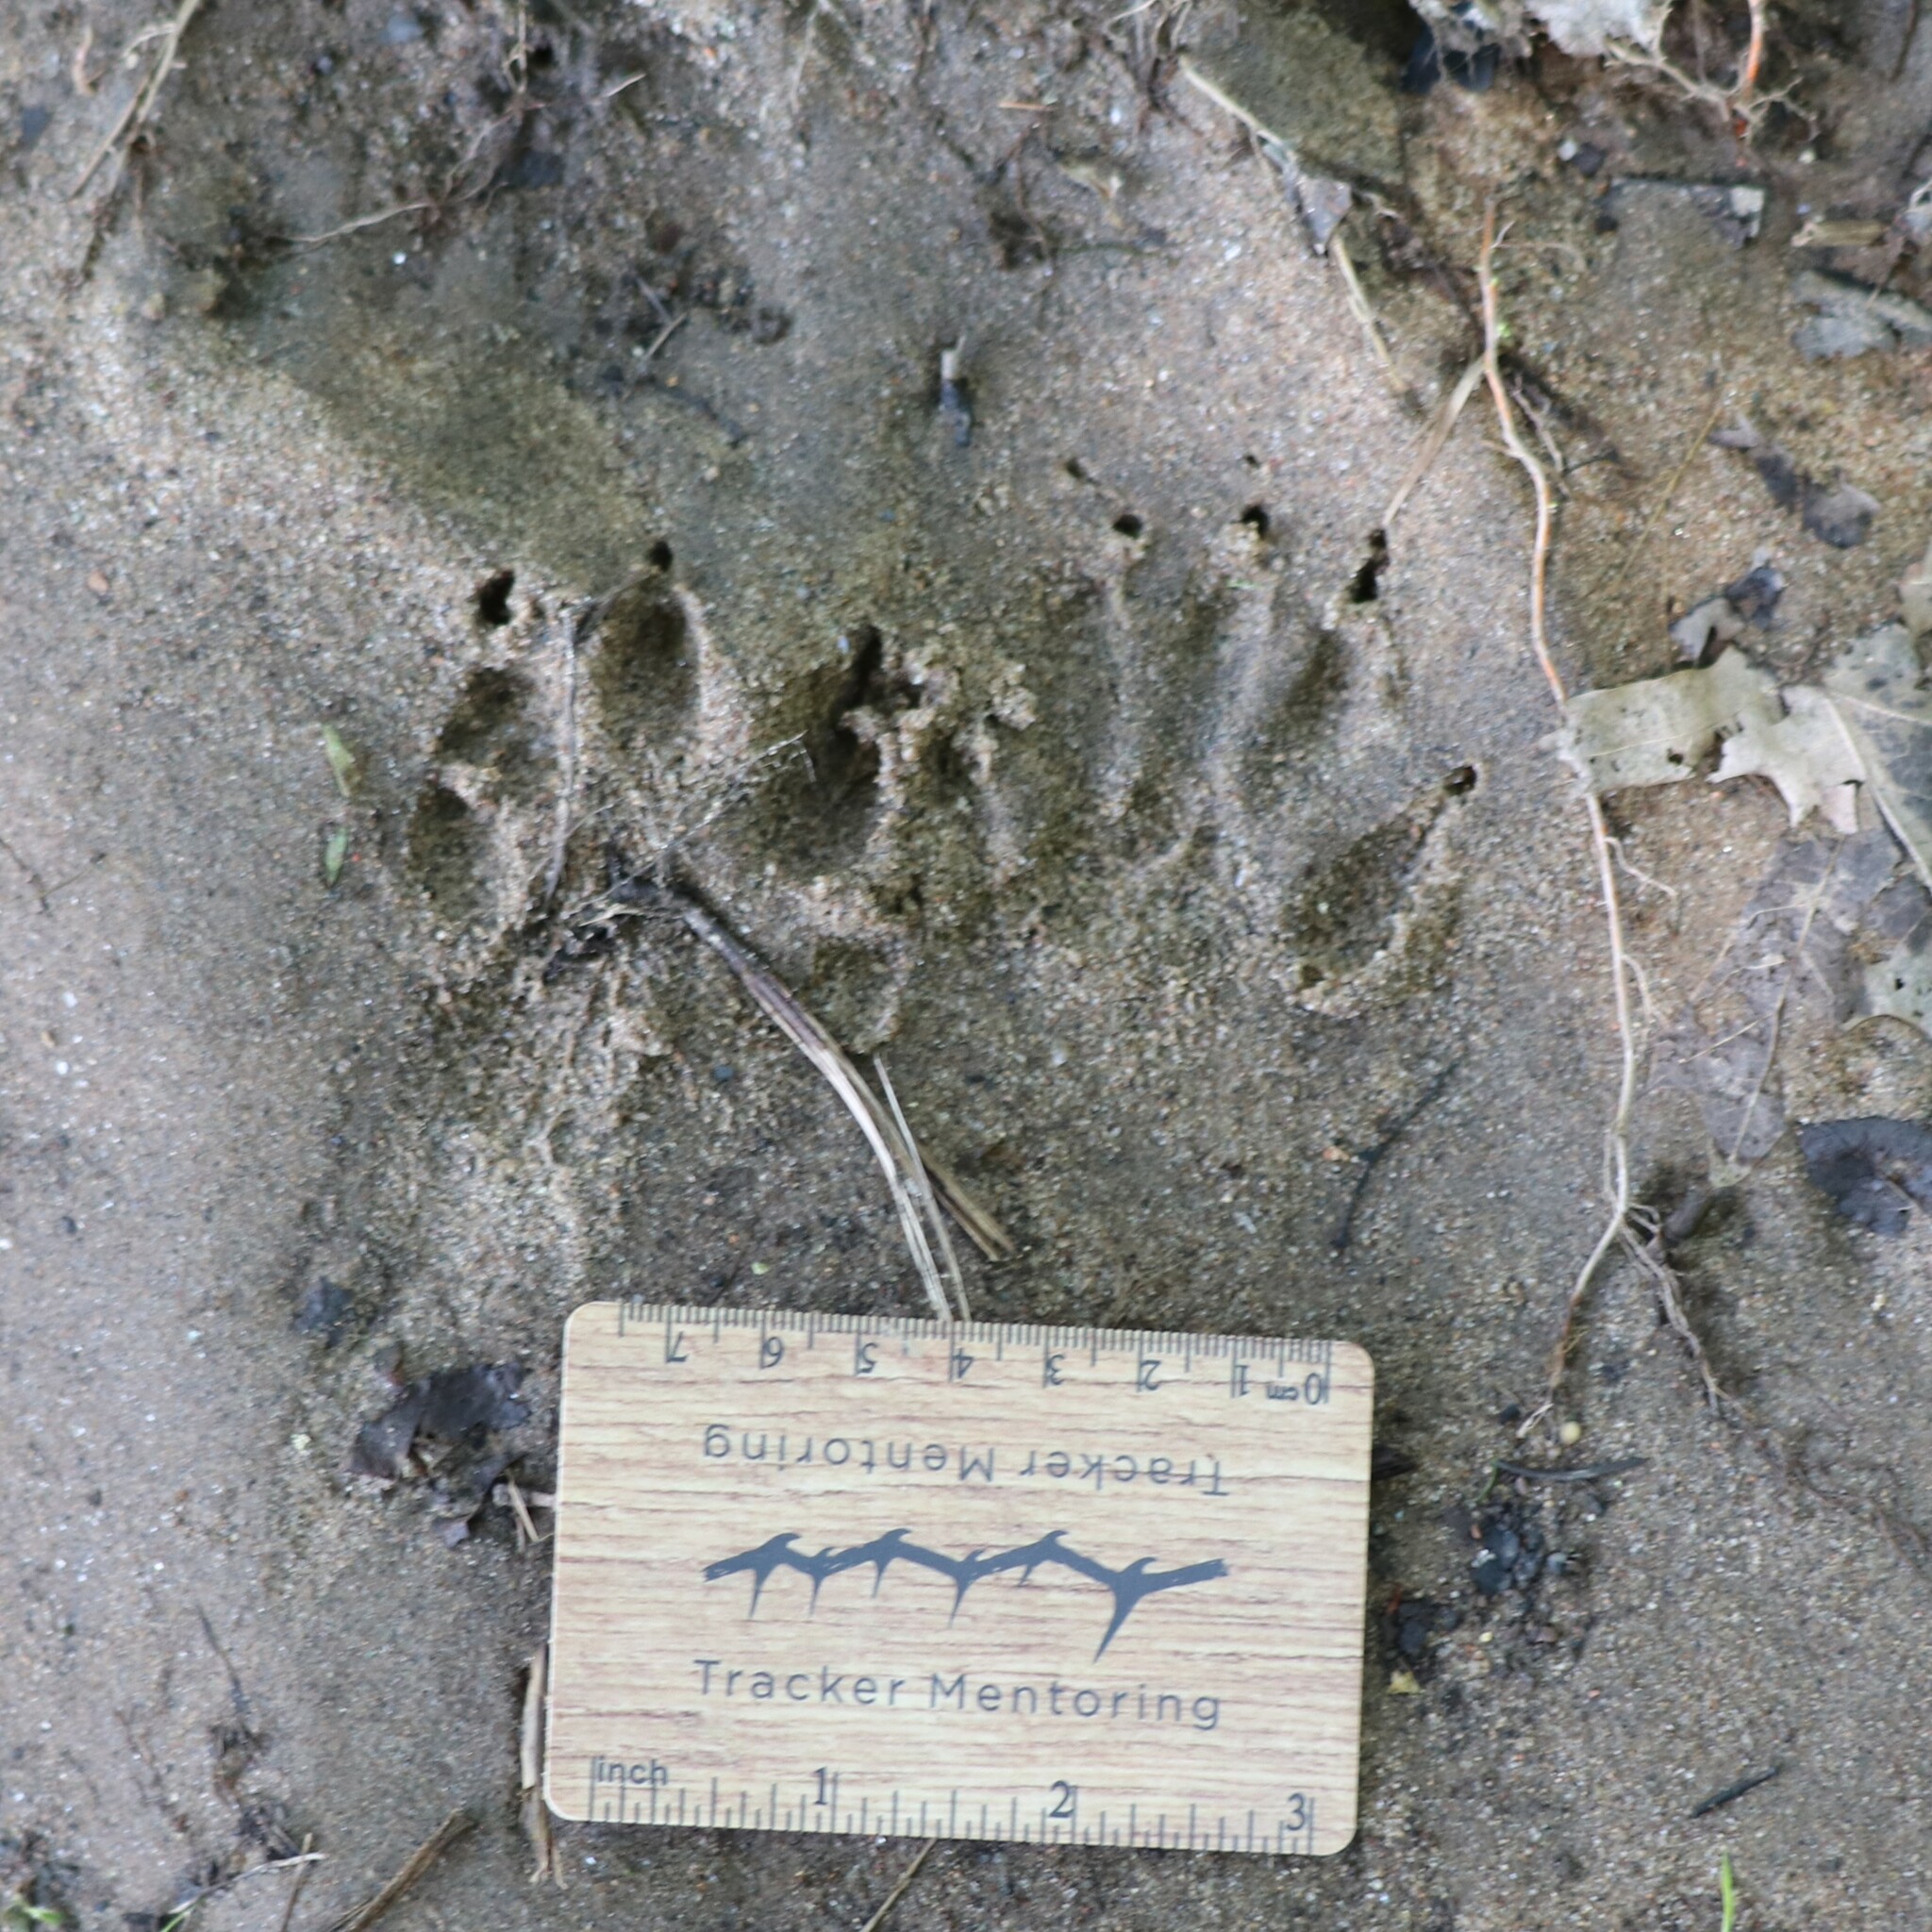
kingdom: Animalia
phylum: Chordata
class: Mammalia
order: Carnivora
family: Procyonidae
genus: Procyon
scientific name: Procyon lotor
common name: Raccoon
